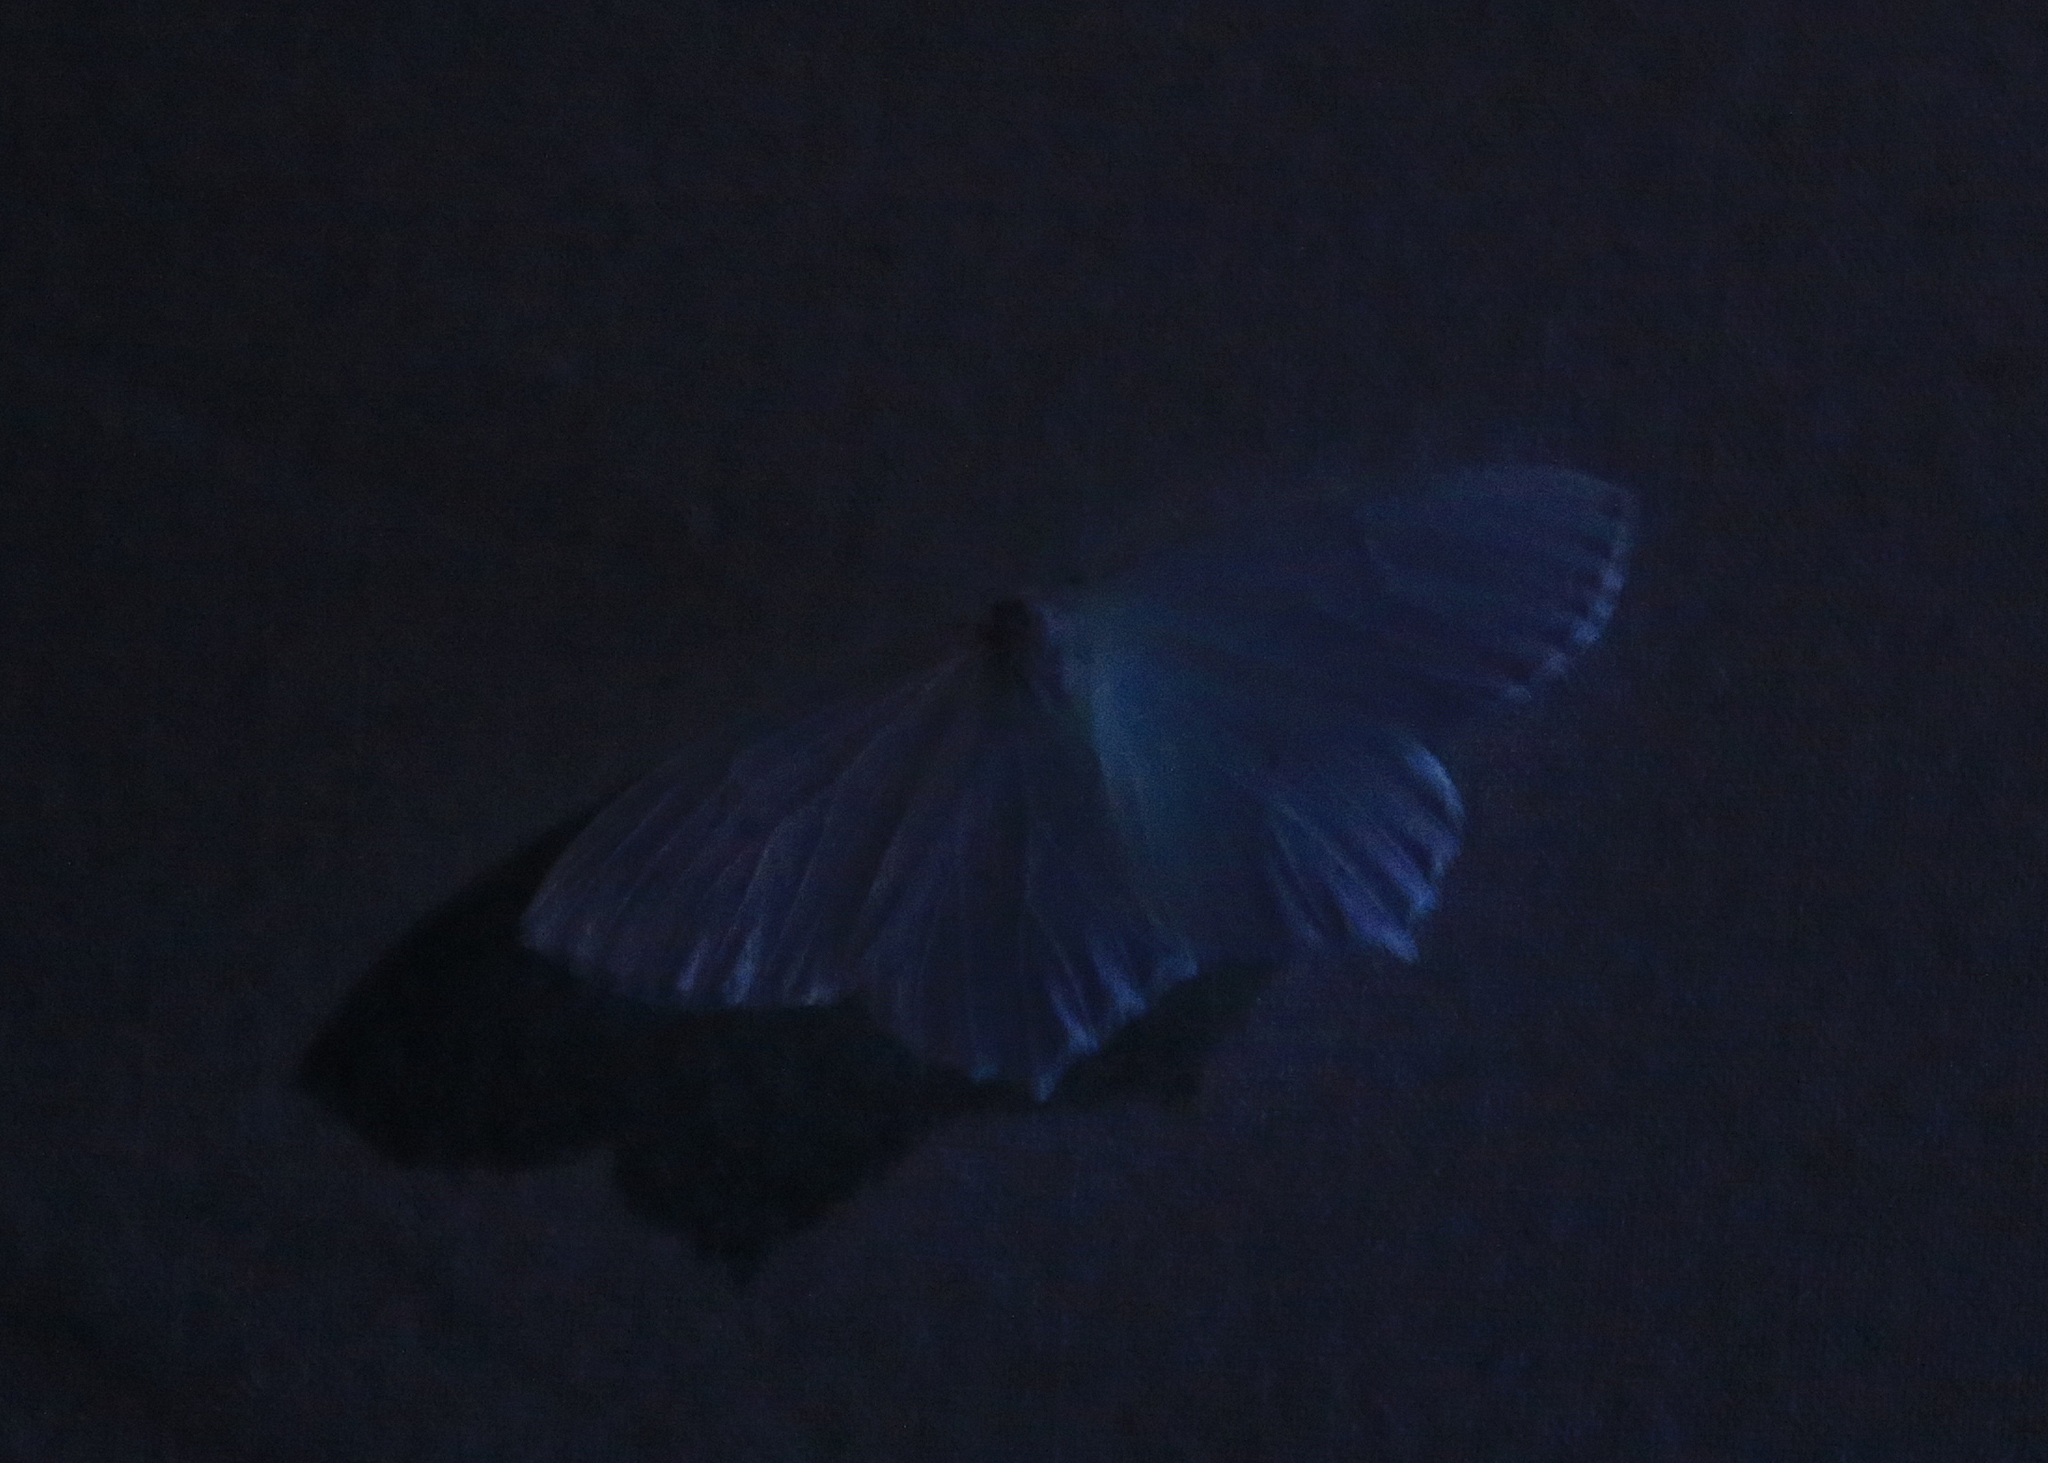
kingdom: Animalia
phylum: Arthropoda
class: Insecta
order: Lepidoptera
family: Geometridae
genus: Eugonobapta
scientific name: Eugonobapta nivosaria
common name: Snowy geometer
